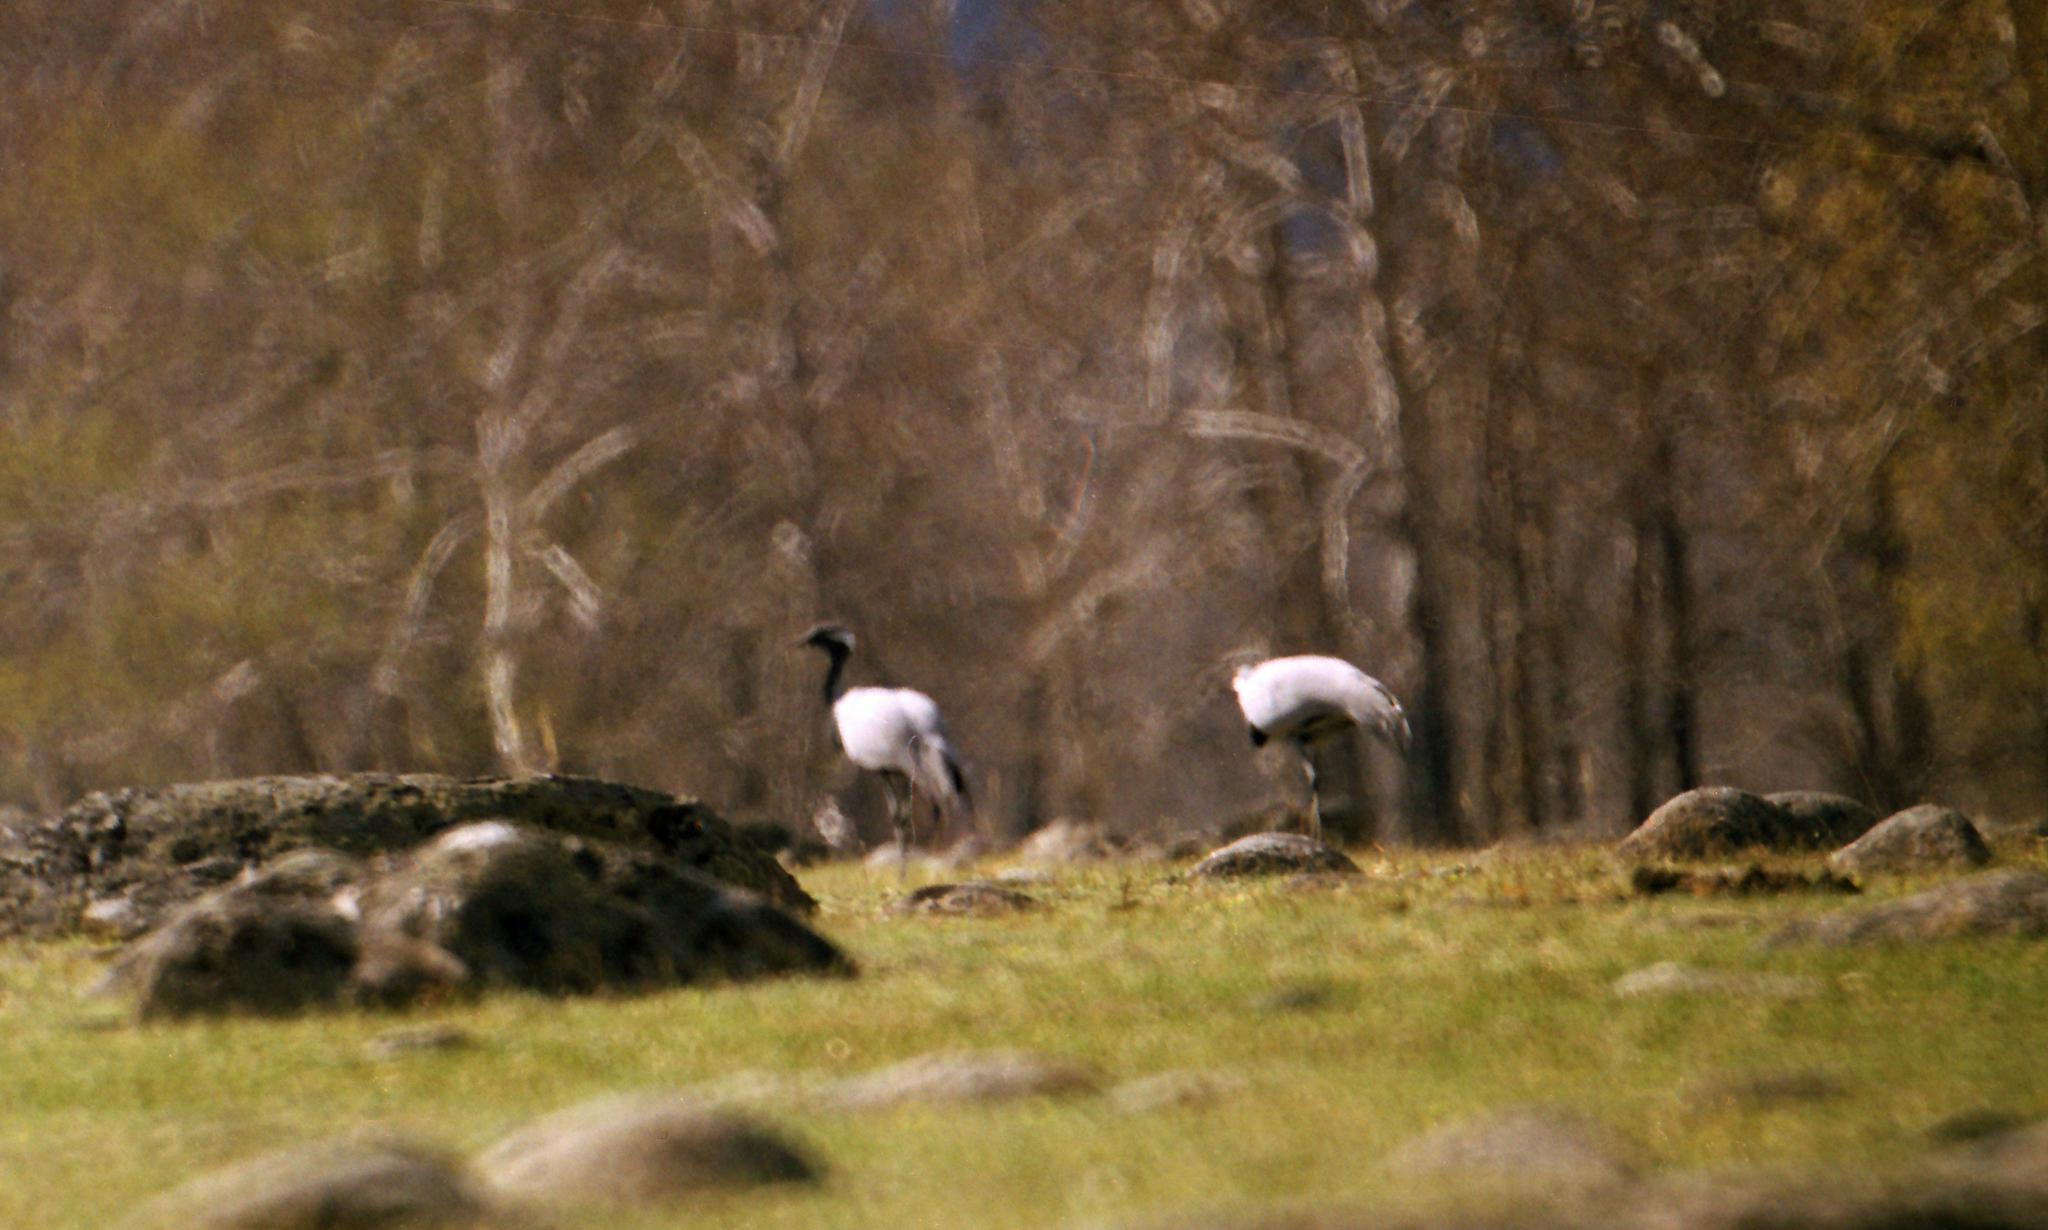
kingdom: Animalia
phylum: Chordata
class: Aves
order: Gruiformes
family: Gruidae
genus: Anthropoides
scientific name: Anthropoides virgo
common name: Demoiselle crane
